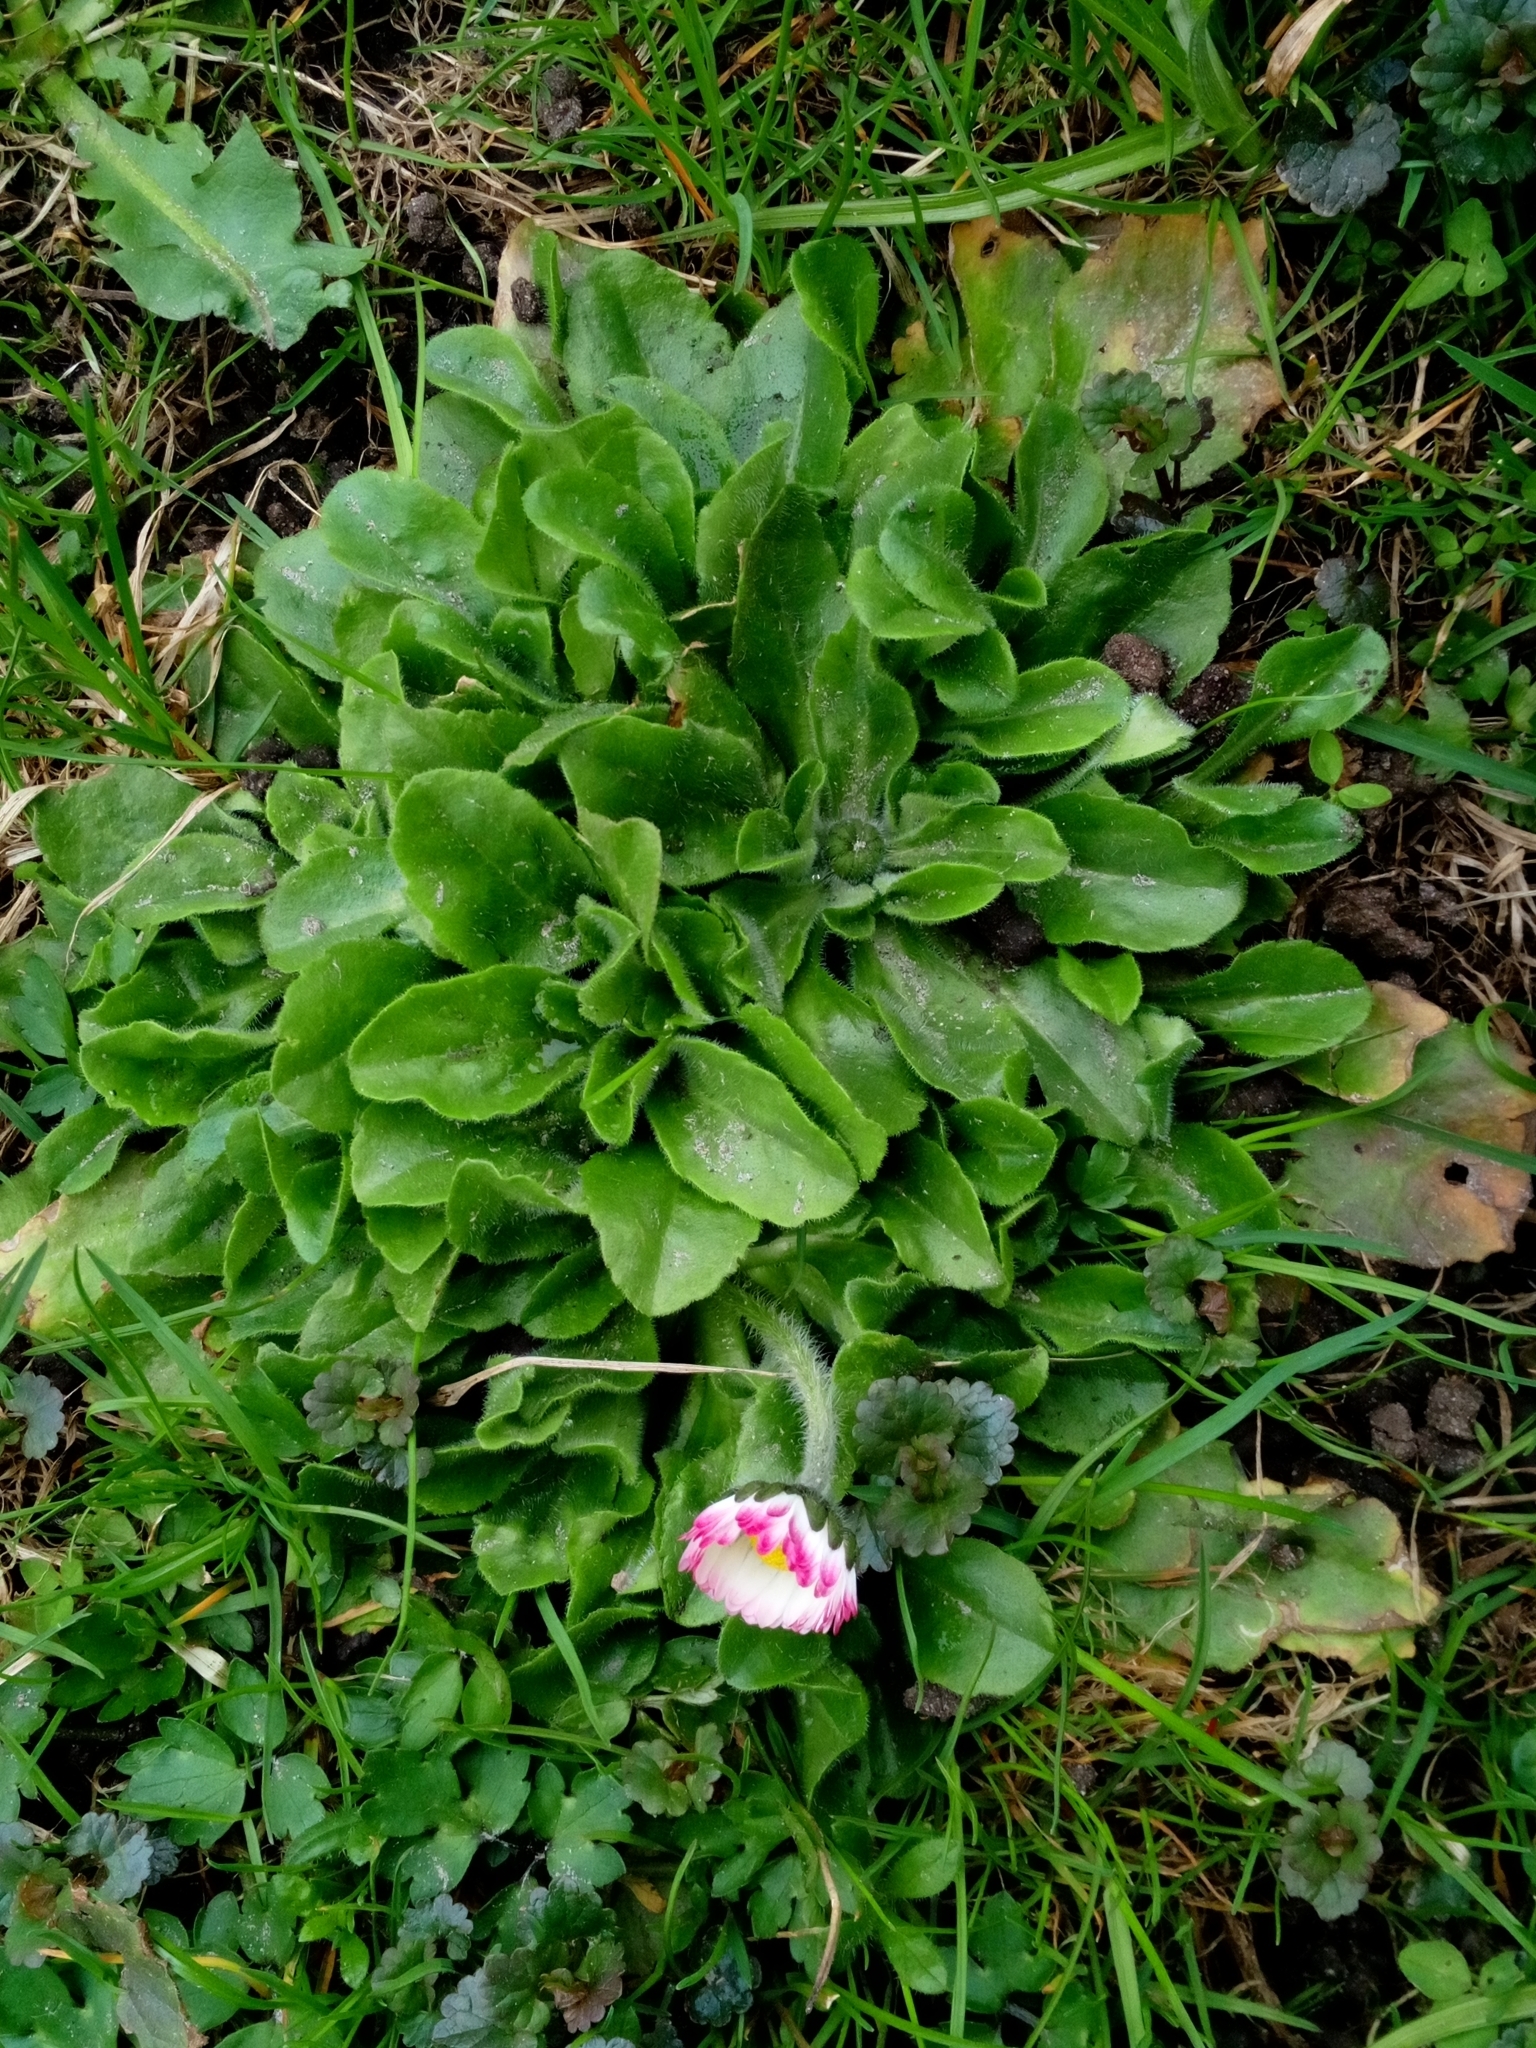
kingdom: Plantae
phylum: Tracheophyta
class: Magnoliopsida
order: Asterales
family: Asteraceae
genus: Bellis
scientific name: Bellis perennis
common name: Lawndaisy
